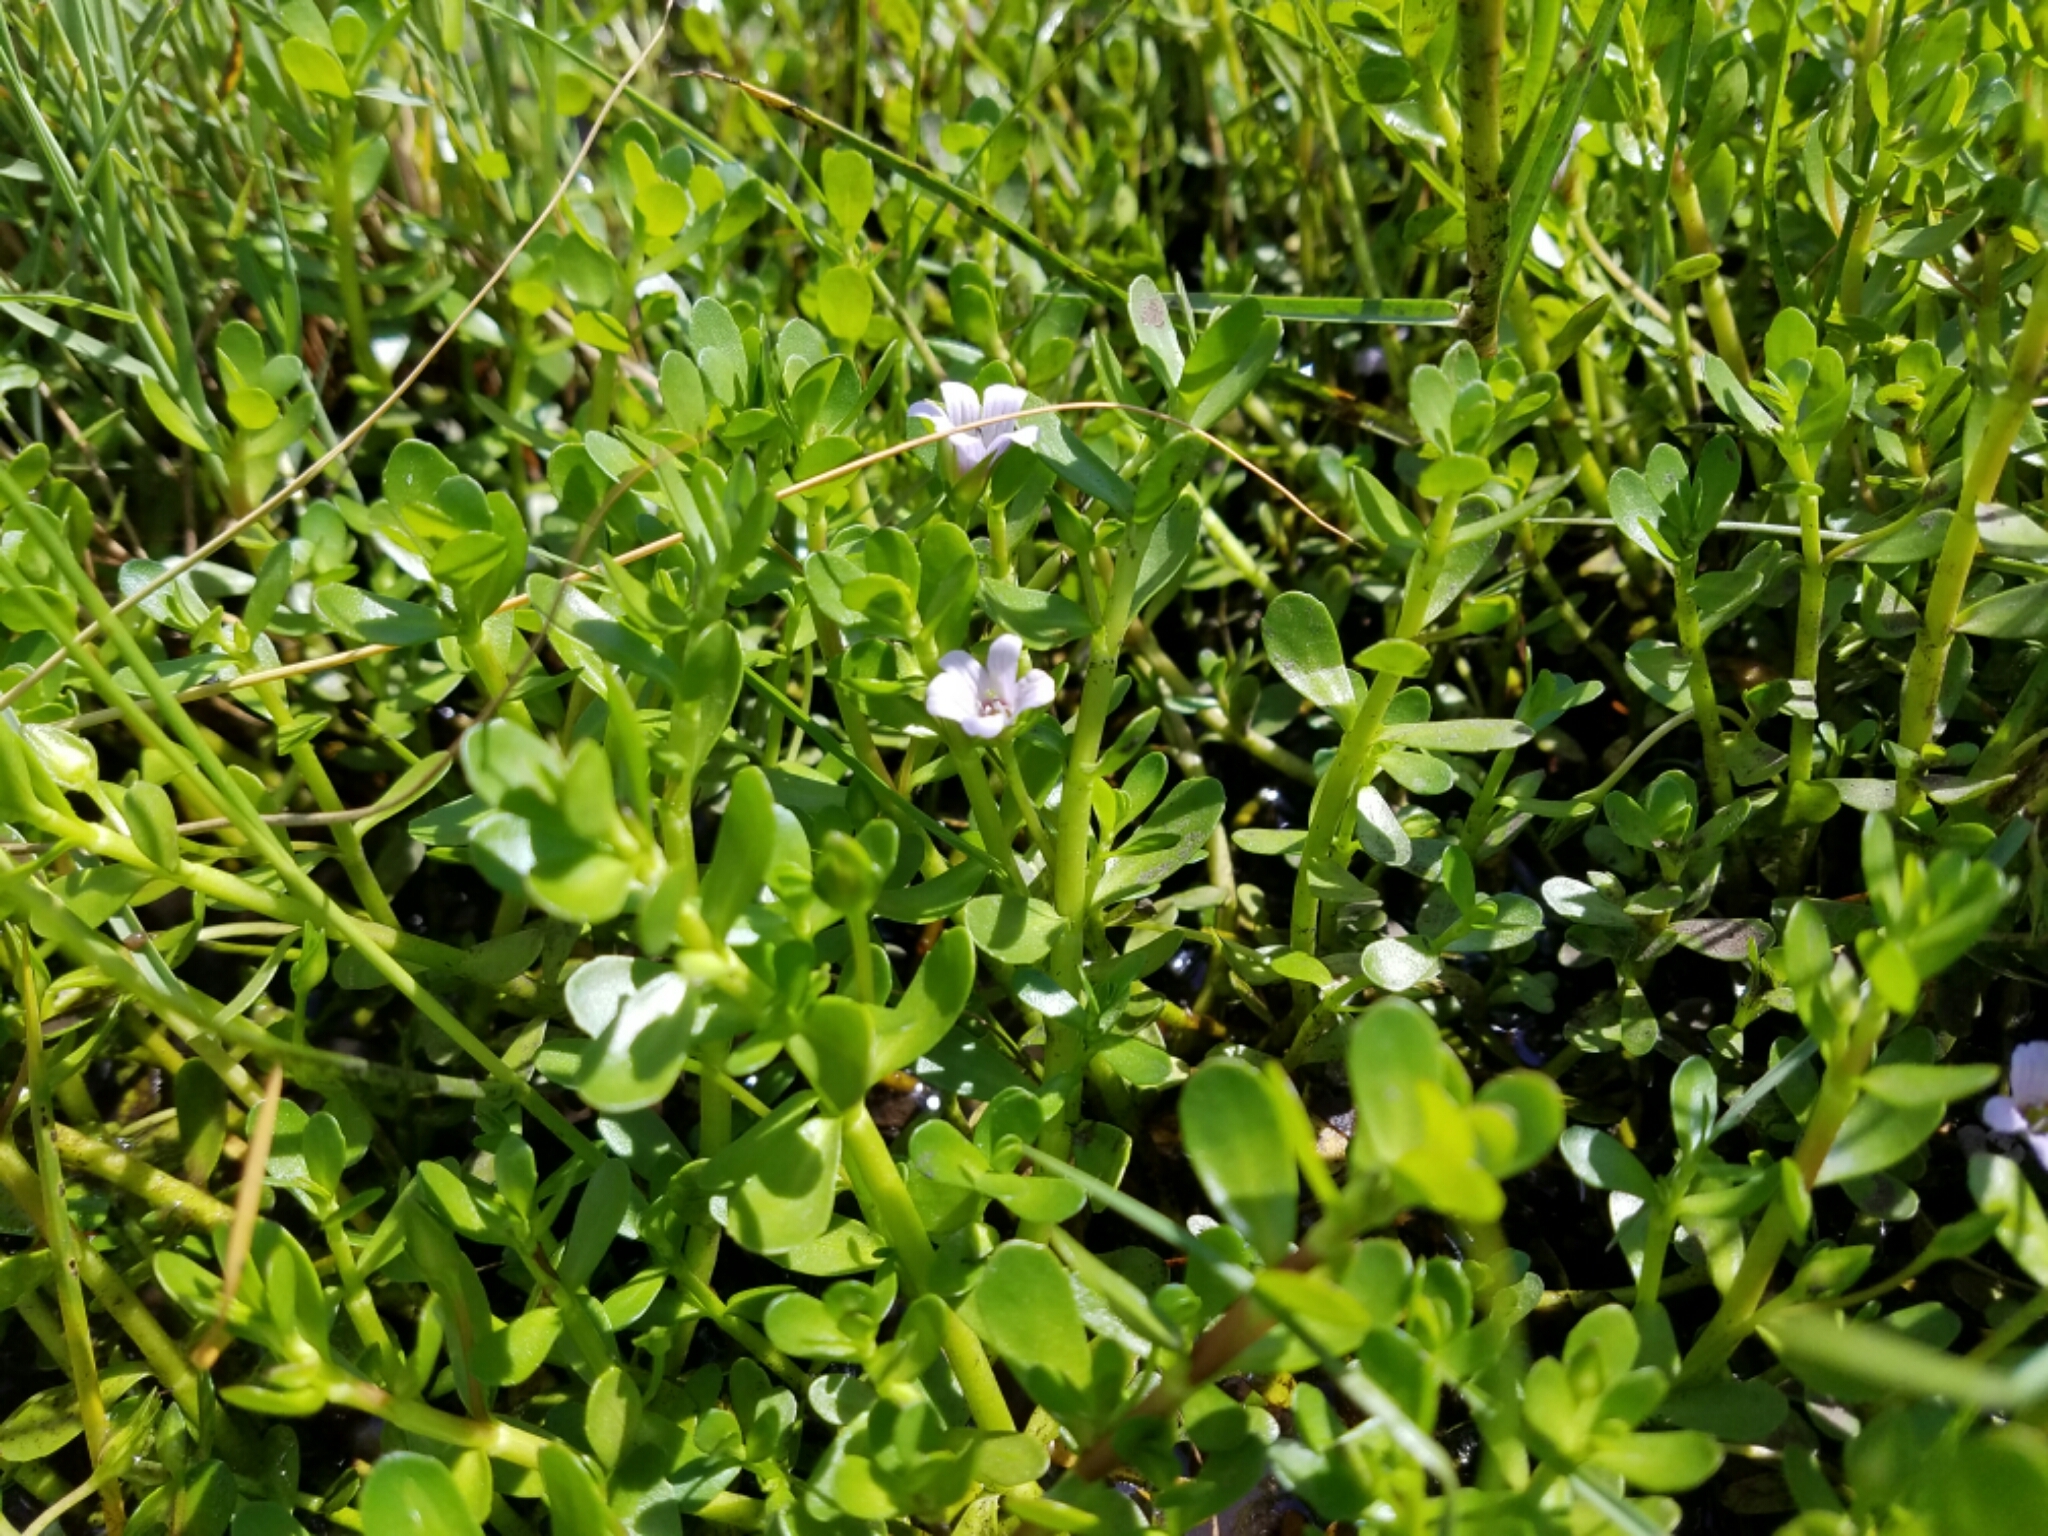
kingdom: Plantae
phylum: Tracheophyta
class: Magnoliopsida
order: Lamiales
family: Plantaginaceae
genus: Bacopa
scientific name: Bacopa monnieri
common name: Indian-pennywort
